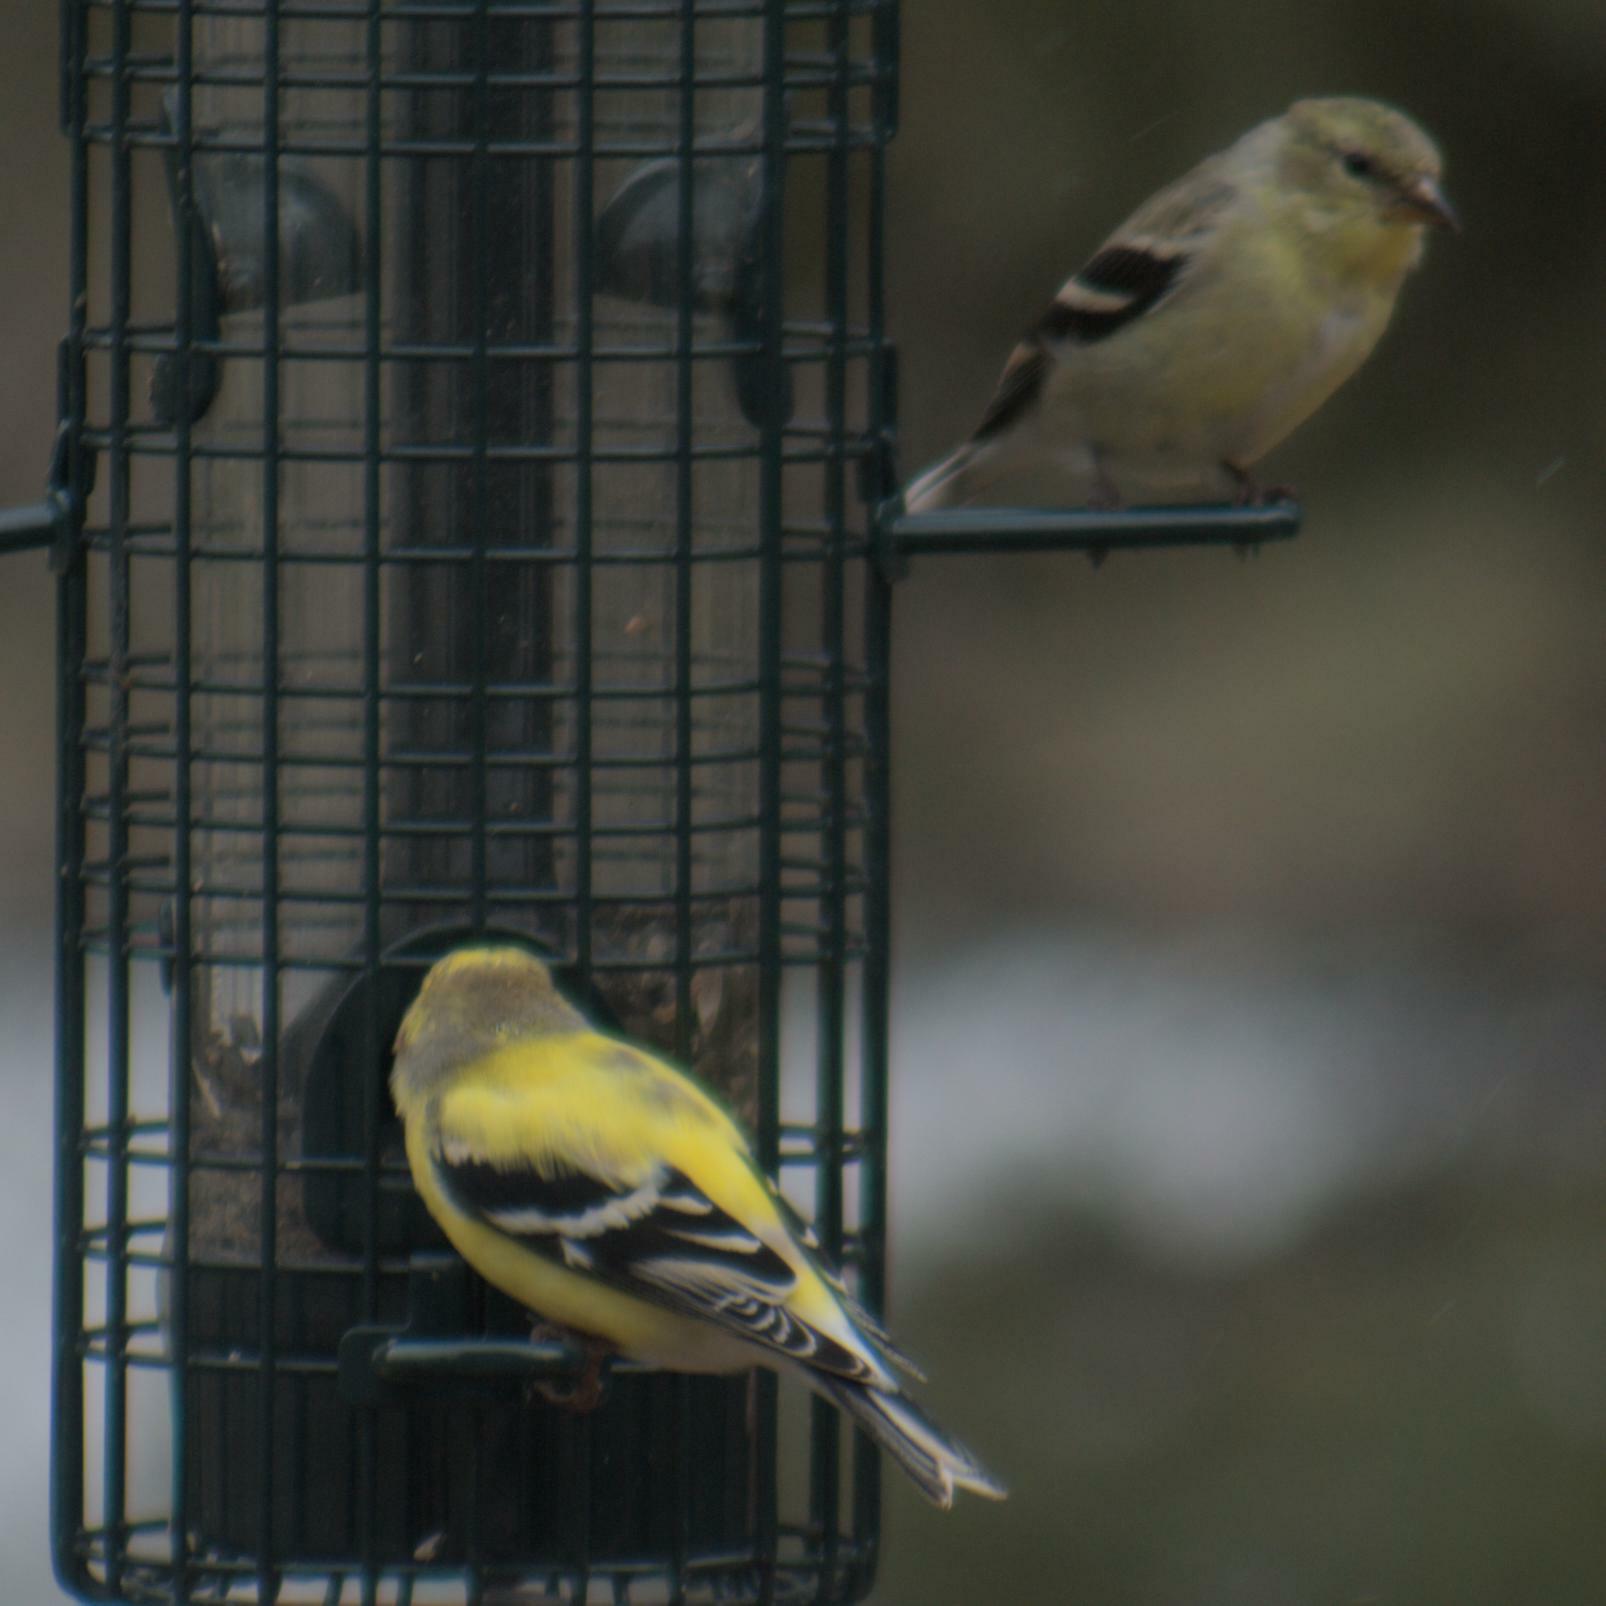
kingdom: Animalia
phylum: Chordata
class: Aves
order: Passeriformes
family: Fringillidae
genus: Spinus
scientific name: Spinus tristis
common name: American goldfinch
